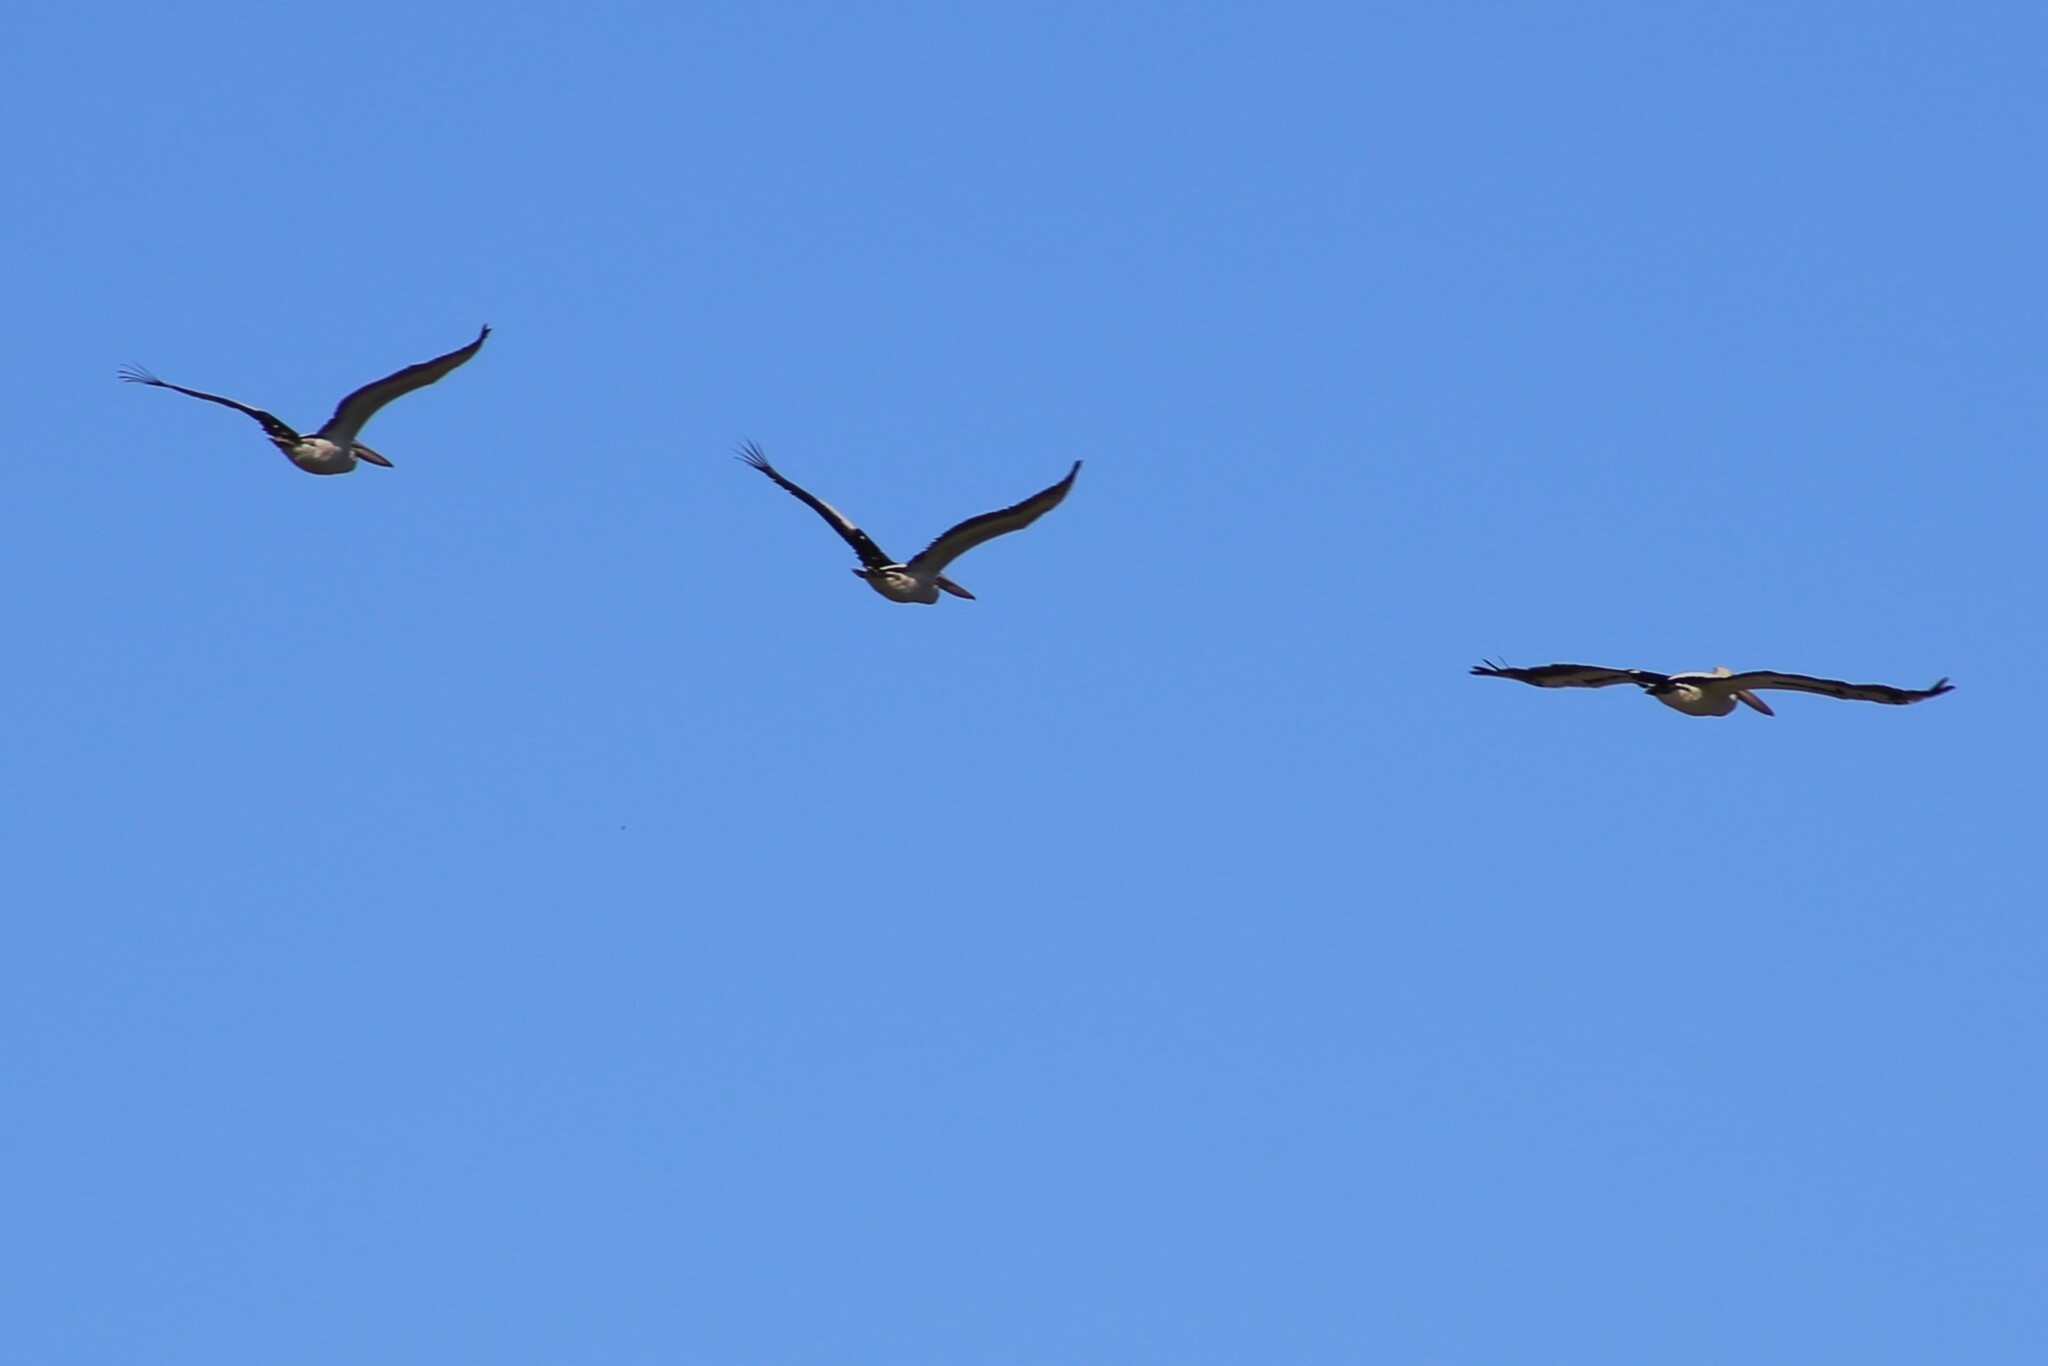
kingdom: Animalia
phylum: Chordata
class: Aves
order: Pelecaniformes
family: Pelecanidae
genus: Pelecanus
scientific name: Pelecanus conspicillatus
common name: Australian pelican
